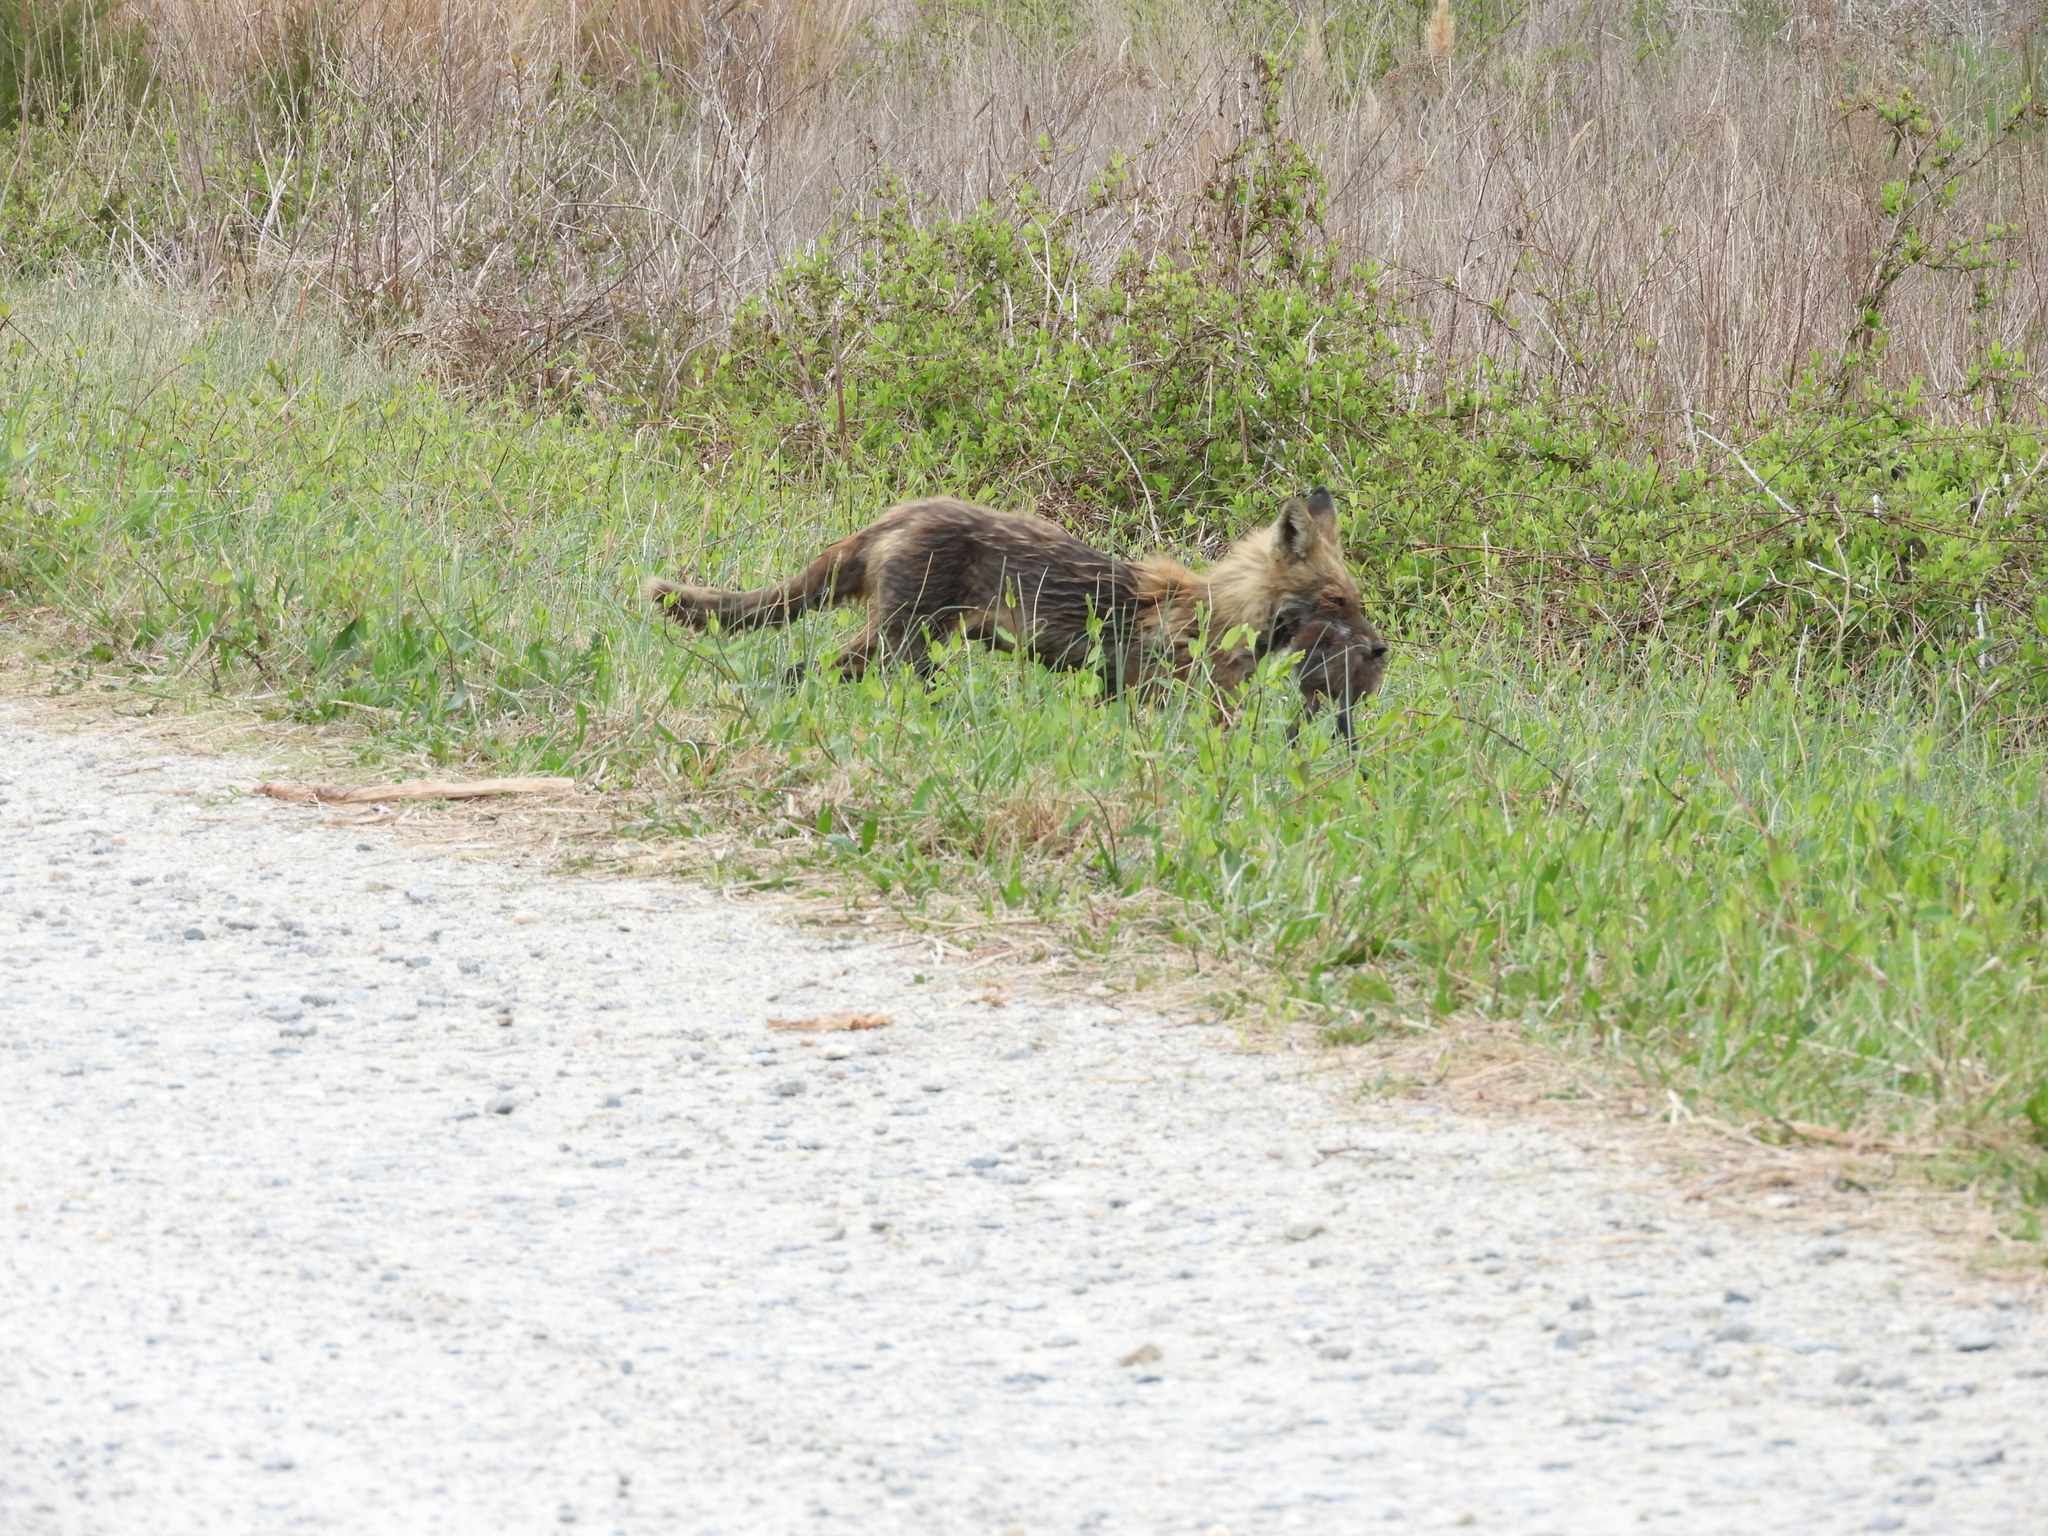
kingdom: Animalia
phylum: Chordata
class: Mammalia
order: Carnivora
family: Canidae
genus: Vulpes
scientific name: Vulpes vulpes
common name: Red fox
